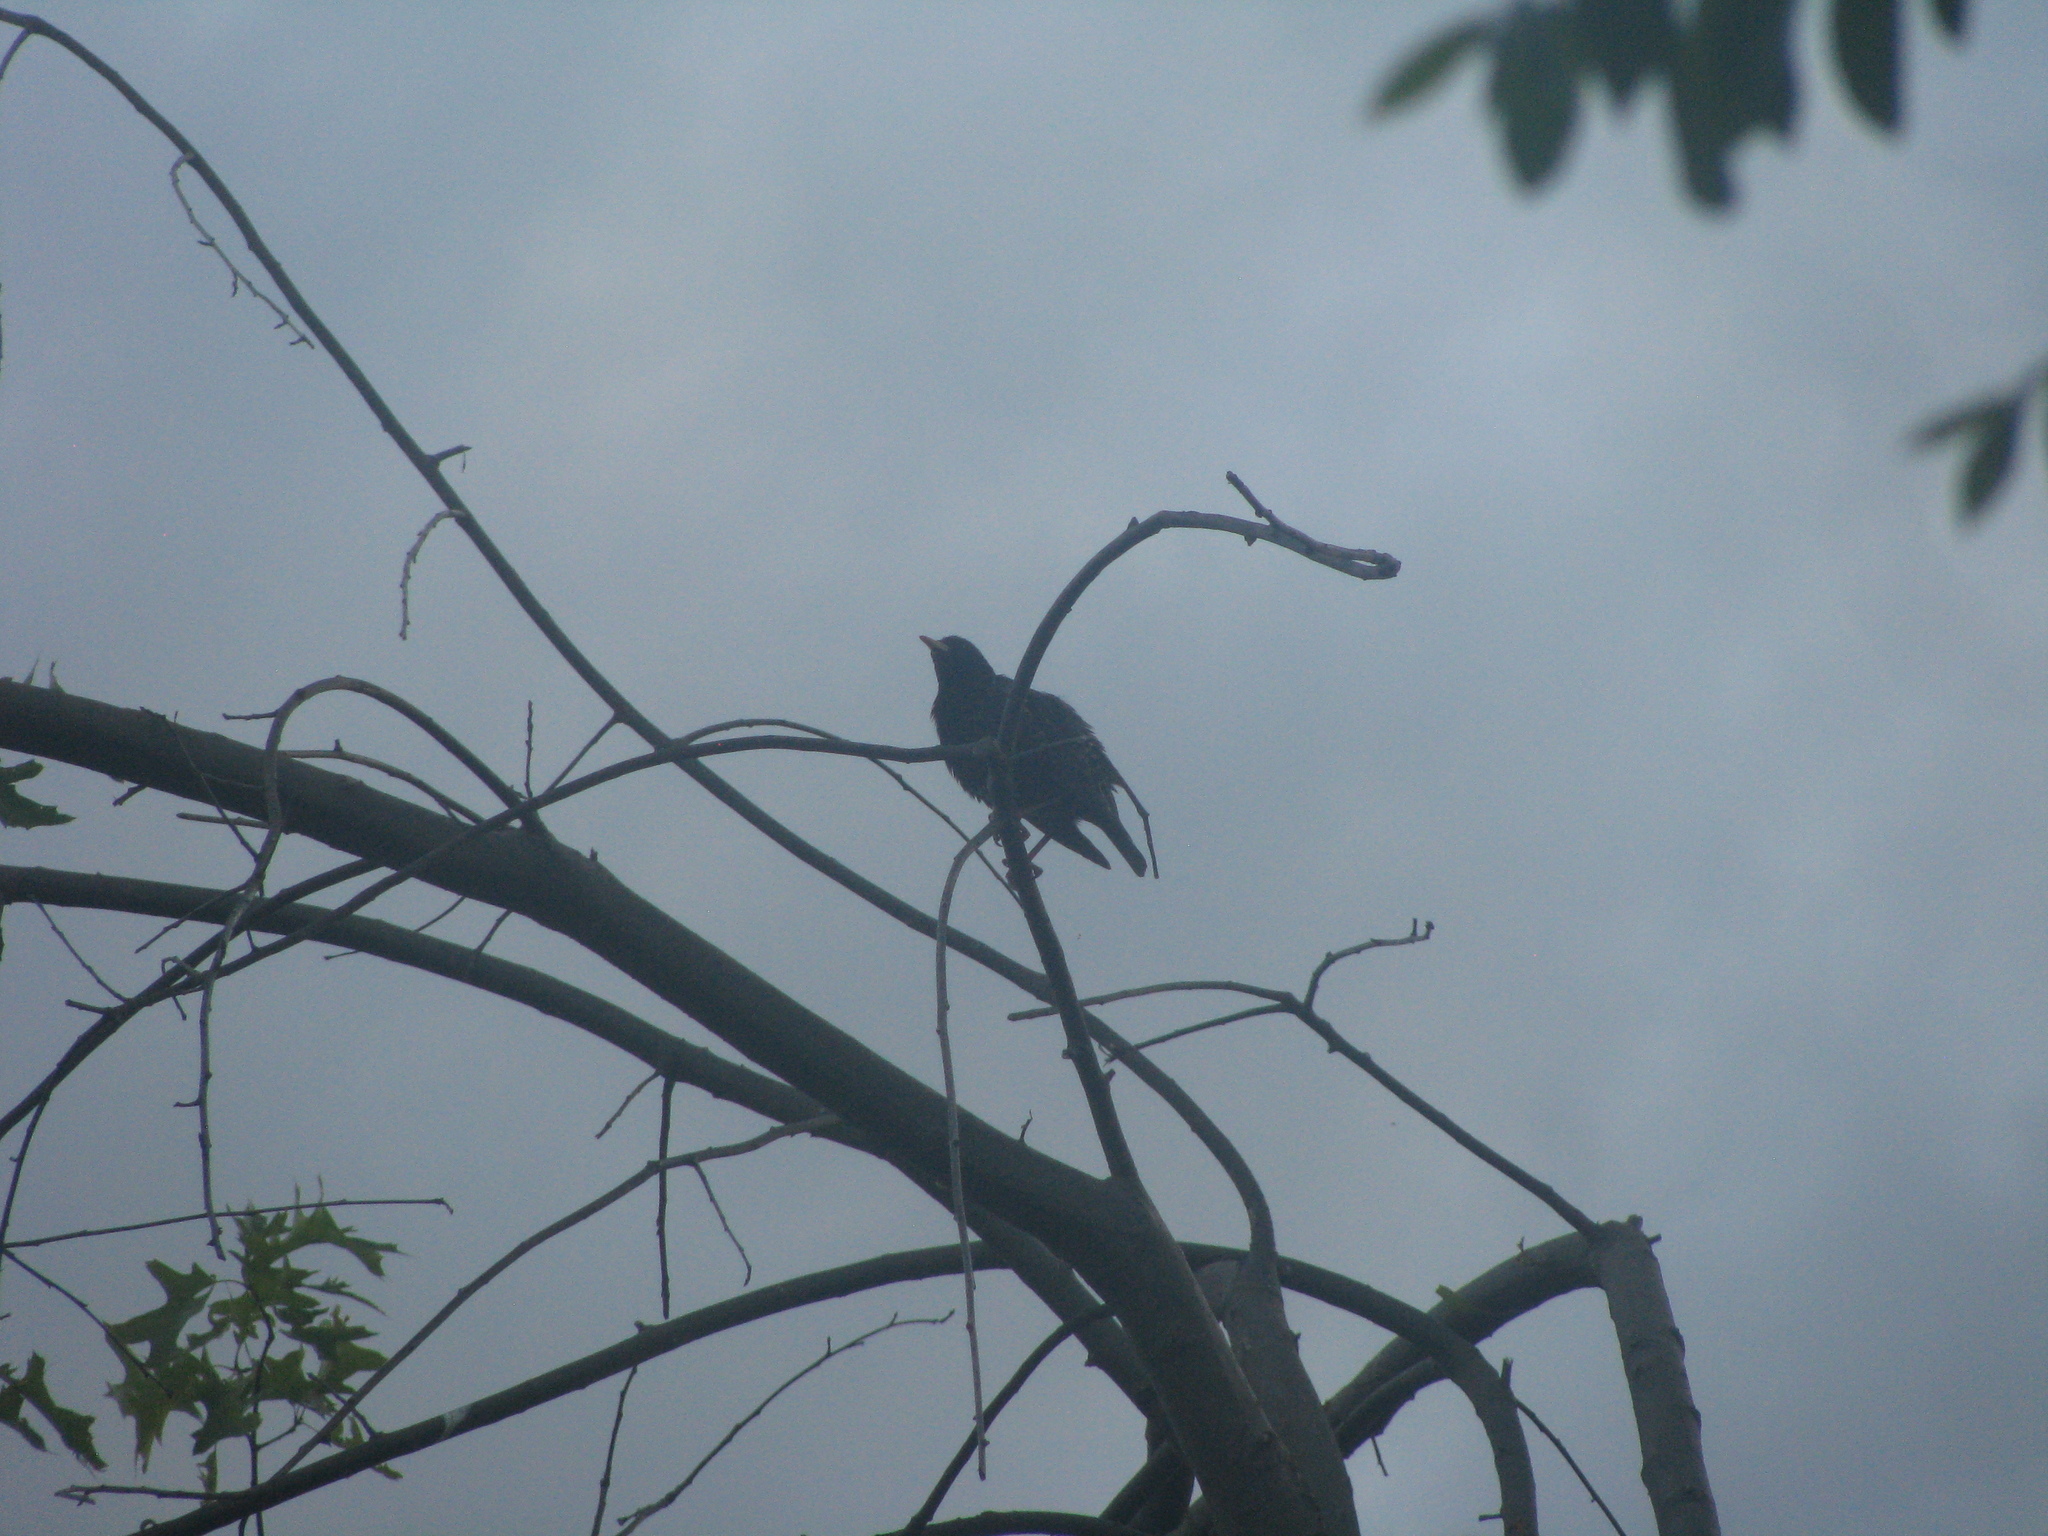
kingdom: Animalia
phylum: Chordata
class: Aves
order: Passeriformes
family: Sturnidae
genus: Sturnus
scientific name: Sturnus vulgaris
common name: Common starling
